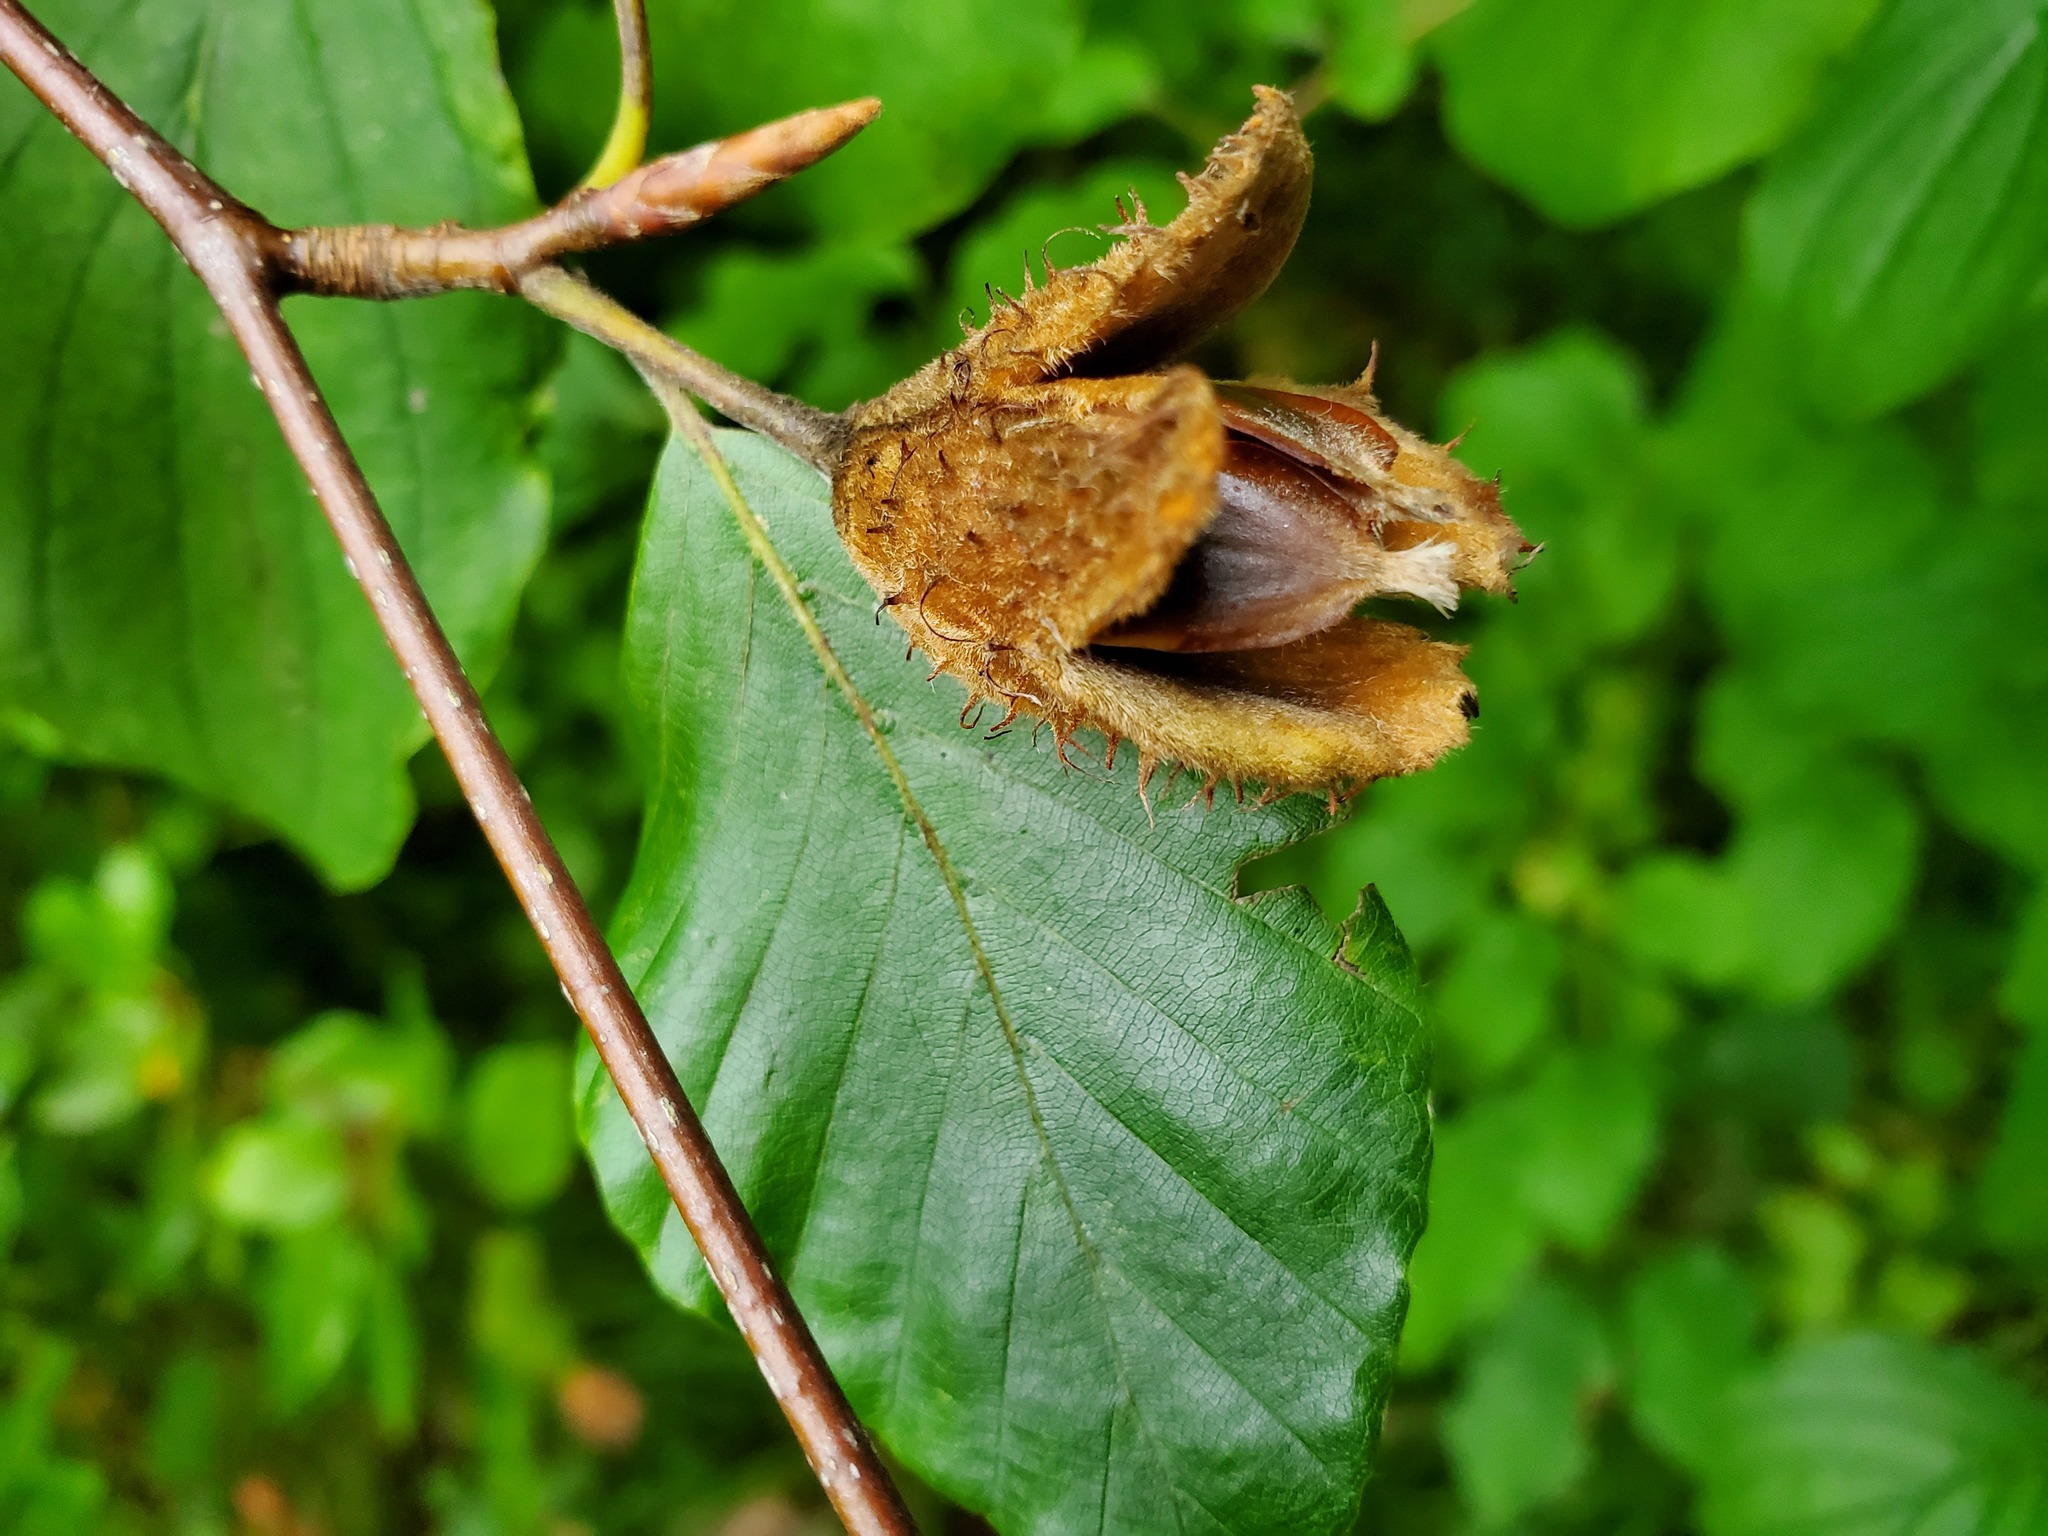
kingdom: Plantae
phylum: Tracheophyta
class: Magnoliopsida
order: Fagales
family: Fagaceae
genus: Fagus
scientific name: Fagus sylvatica
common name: Beech
